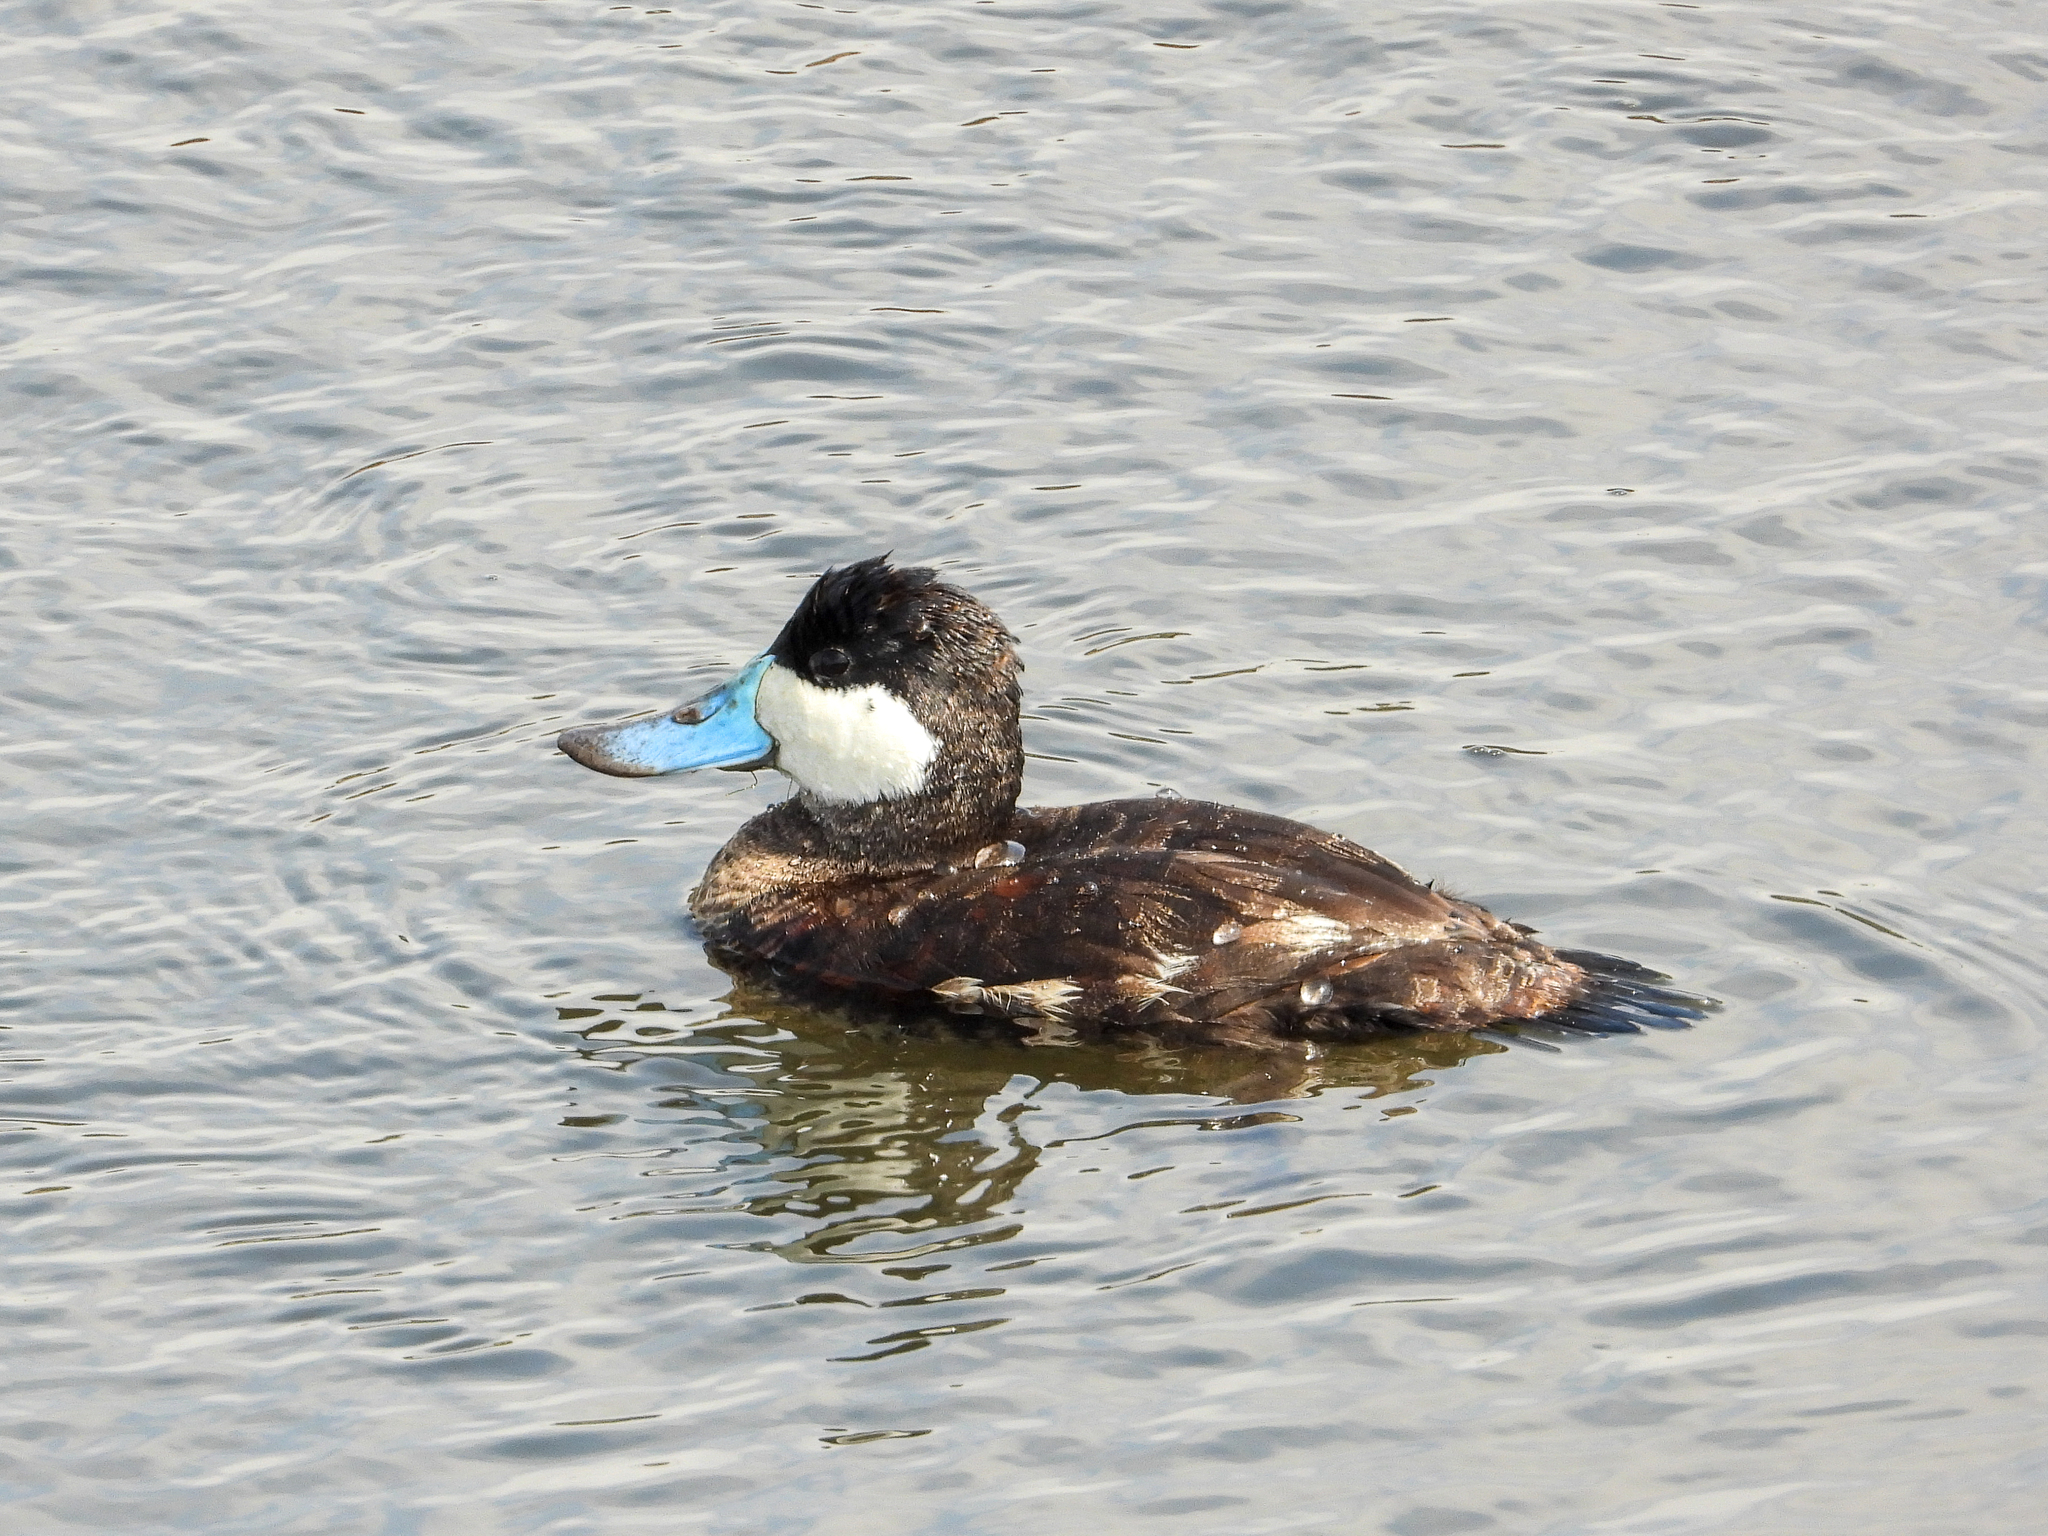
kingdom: Animalia
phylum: Chordata
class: Aves
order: Anseriformes
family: Anatidae
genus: Oxyura
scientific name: Oxyura jamaicensis
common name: Ruddy duck
